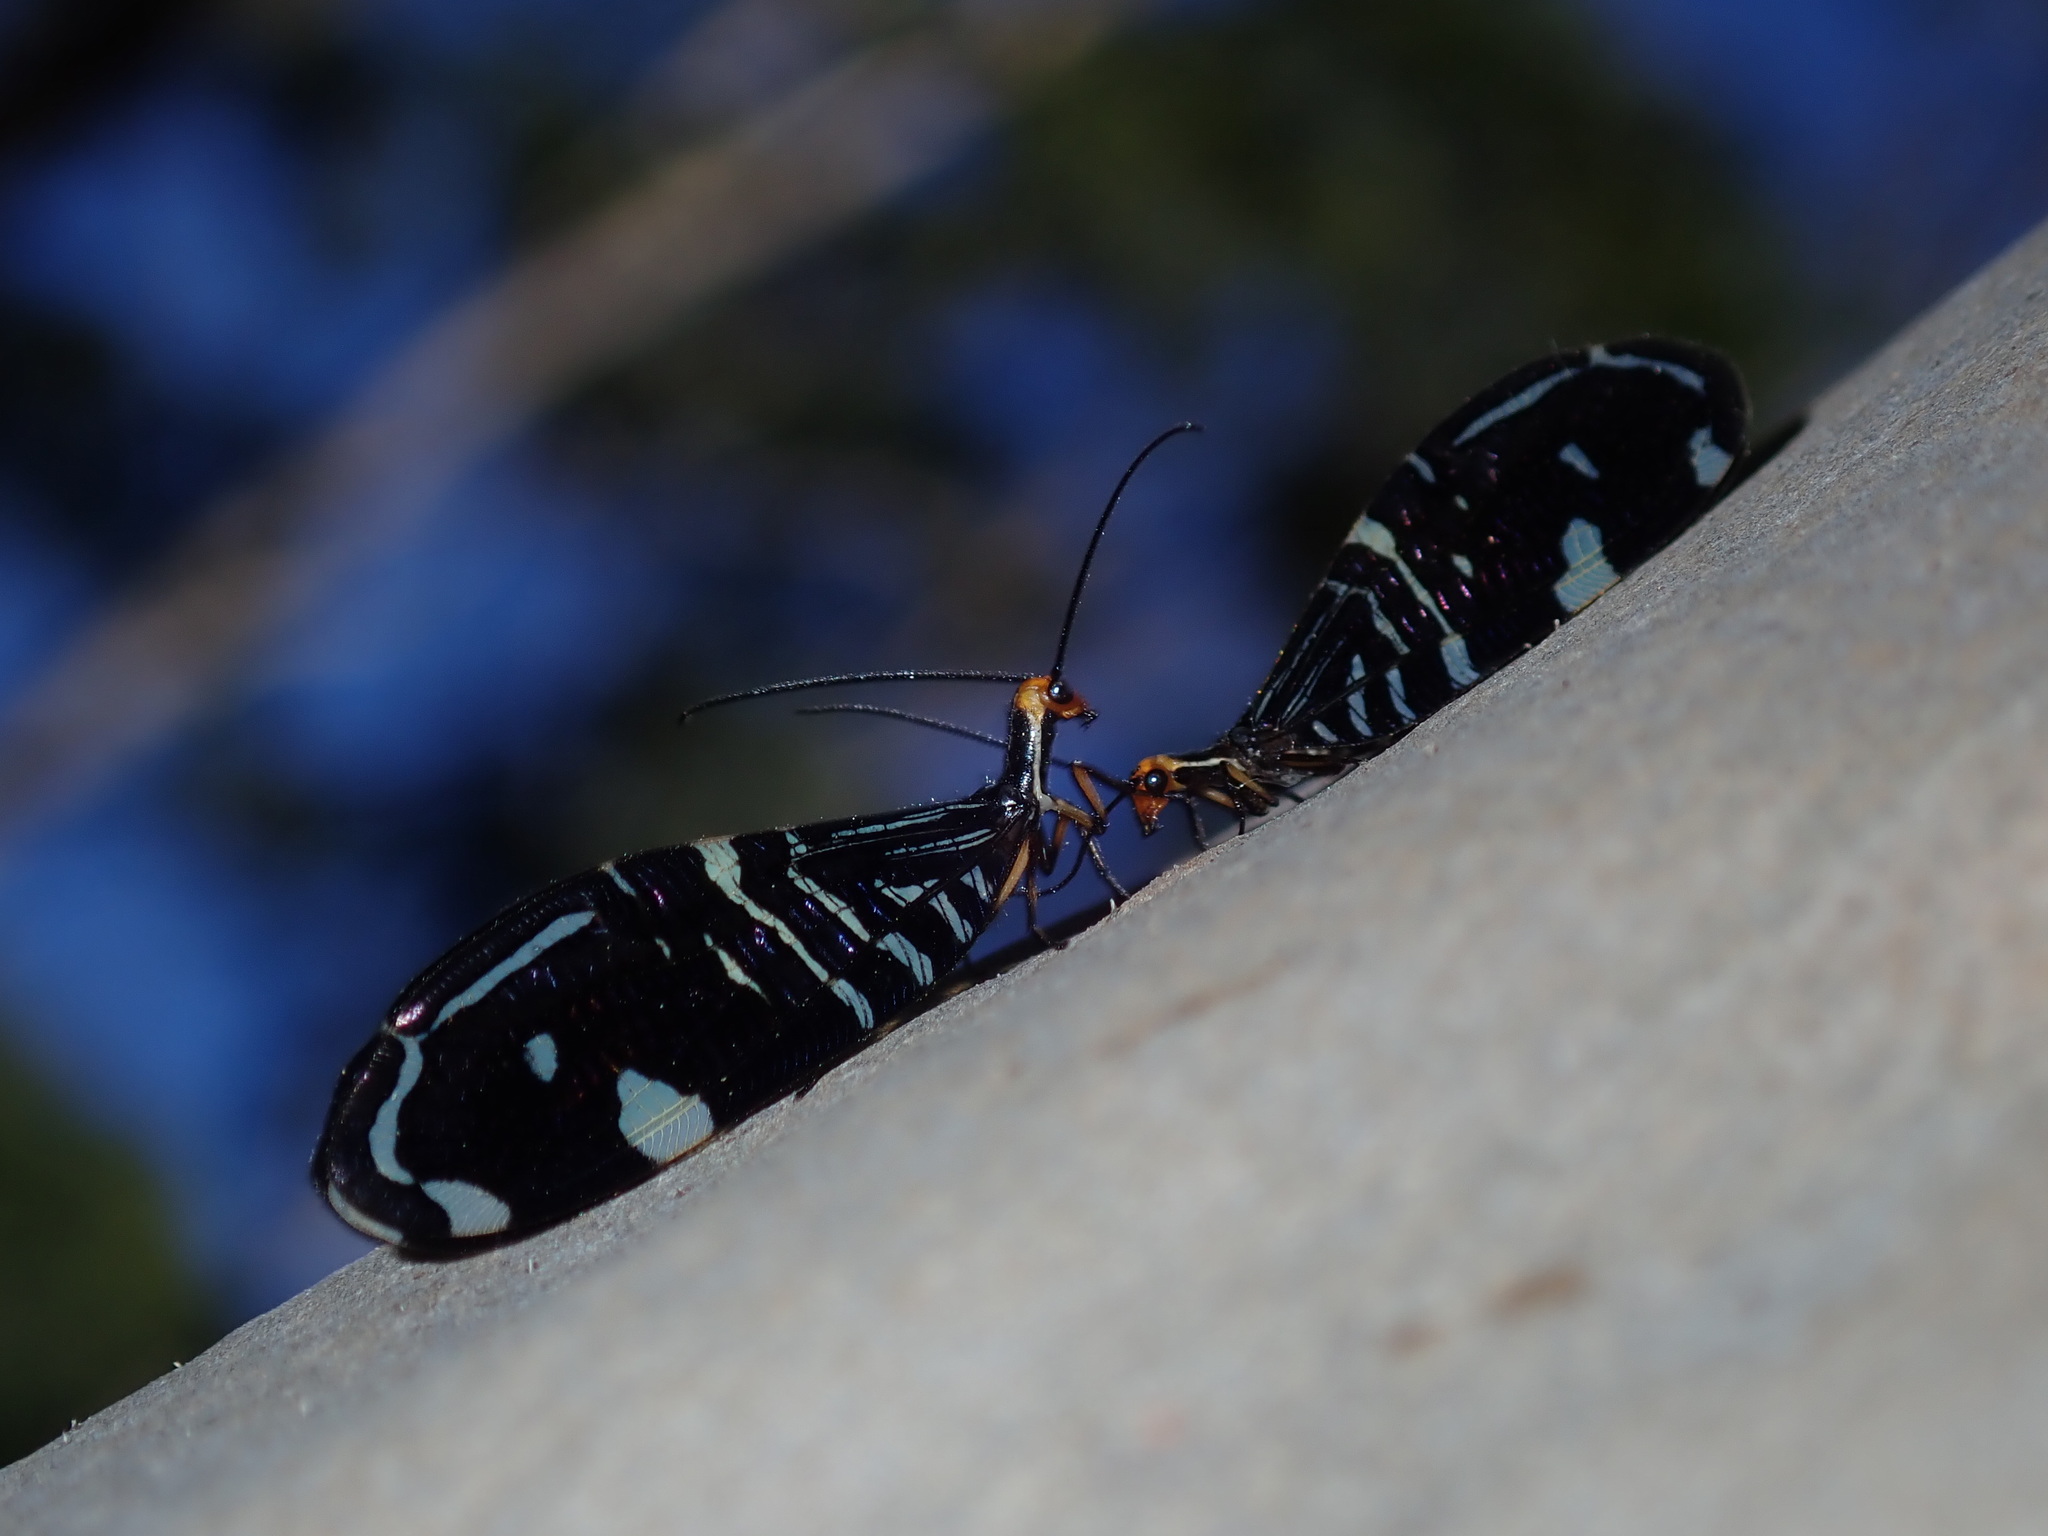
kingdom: Animalia
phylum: Arthropoda
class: Insecta
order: Neuroptera
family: Osmylidae
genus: Porismus
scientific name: Porismus strigatus
